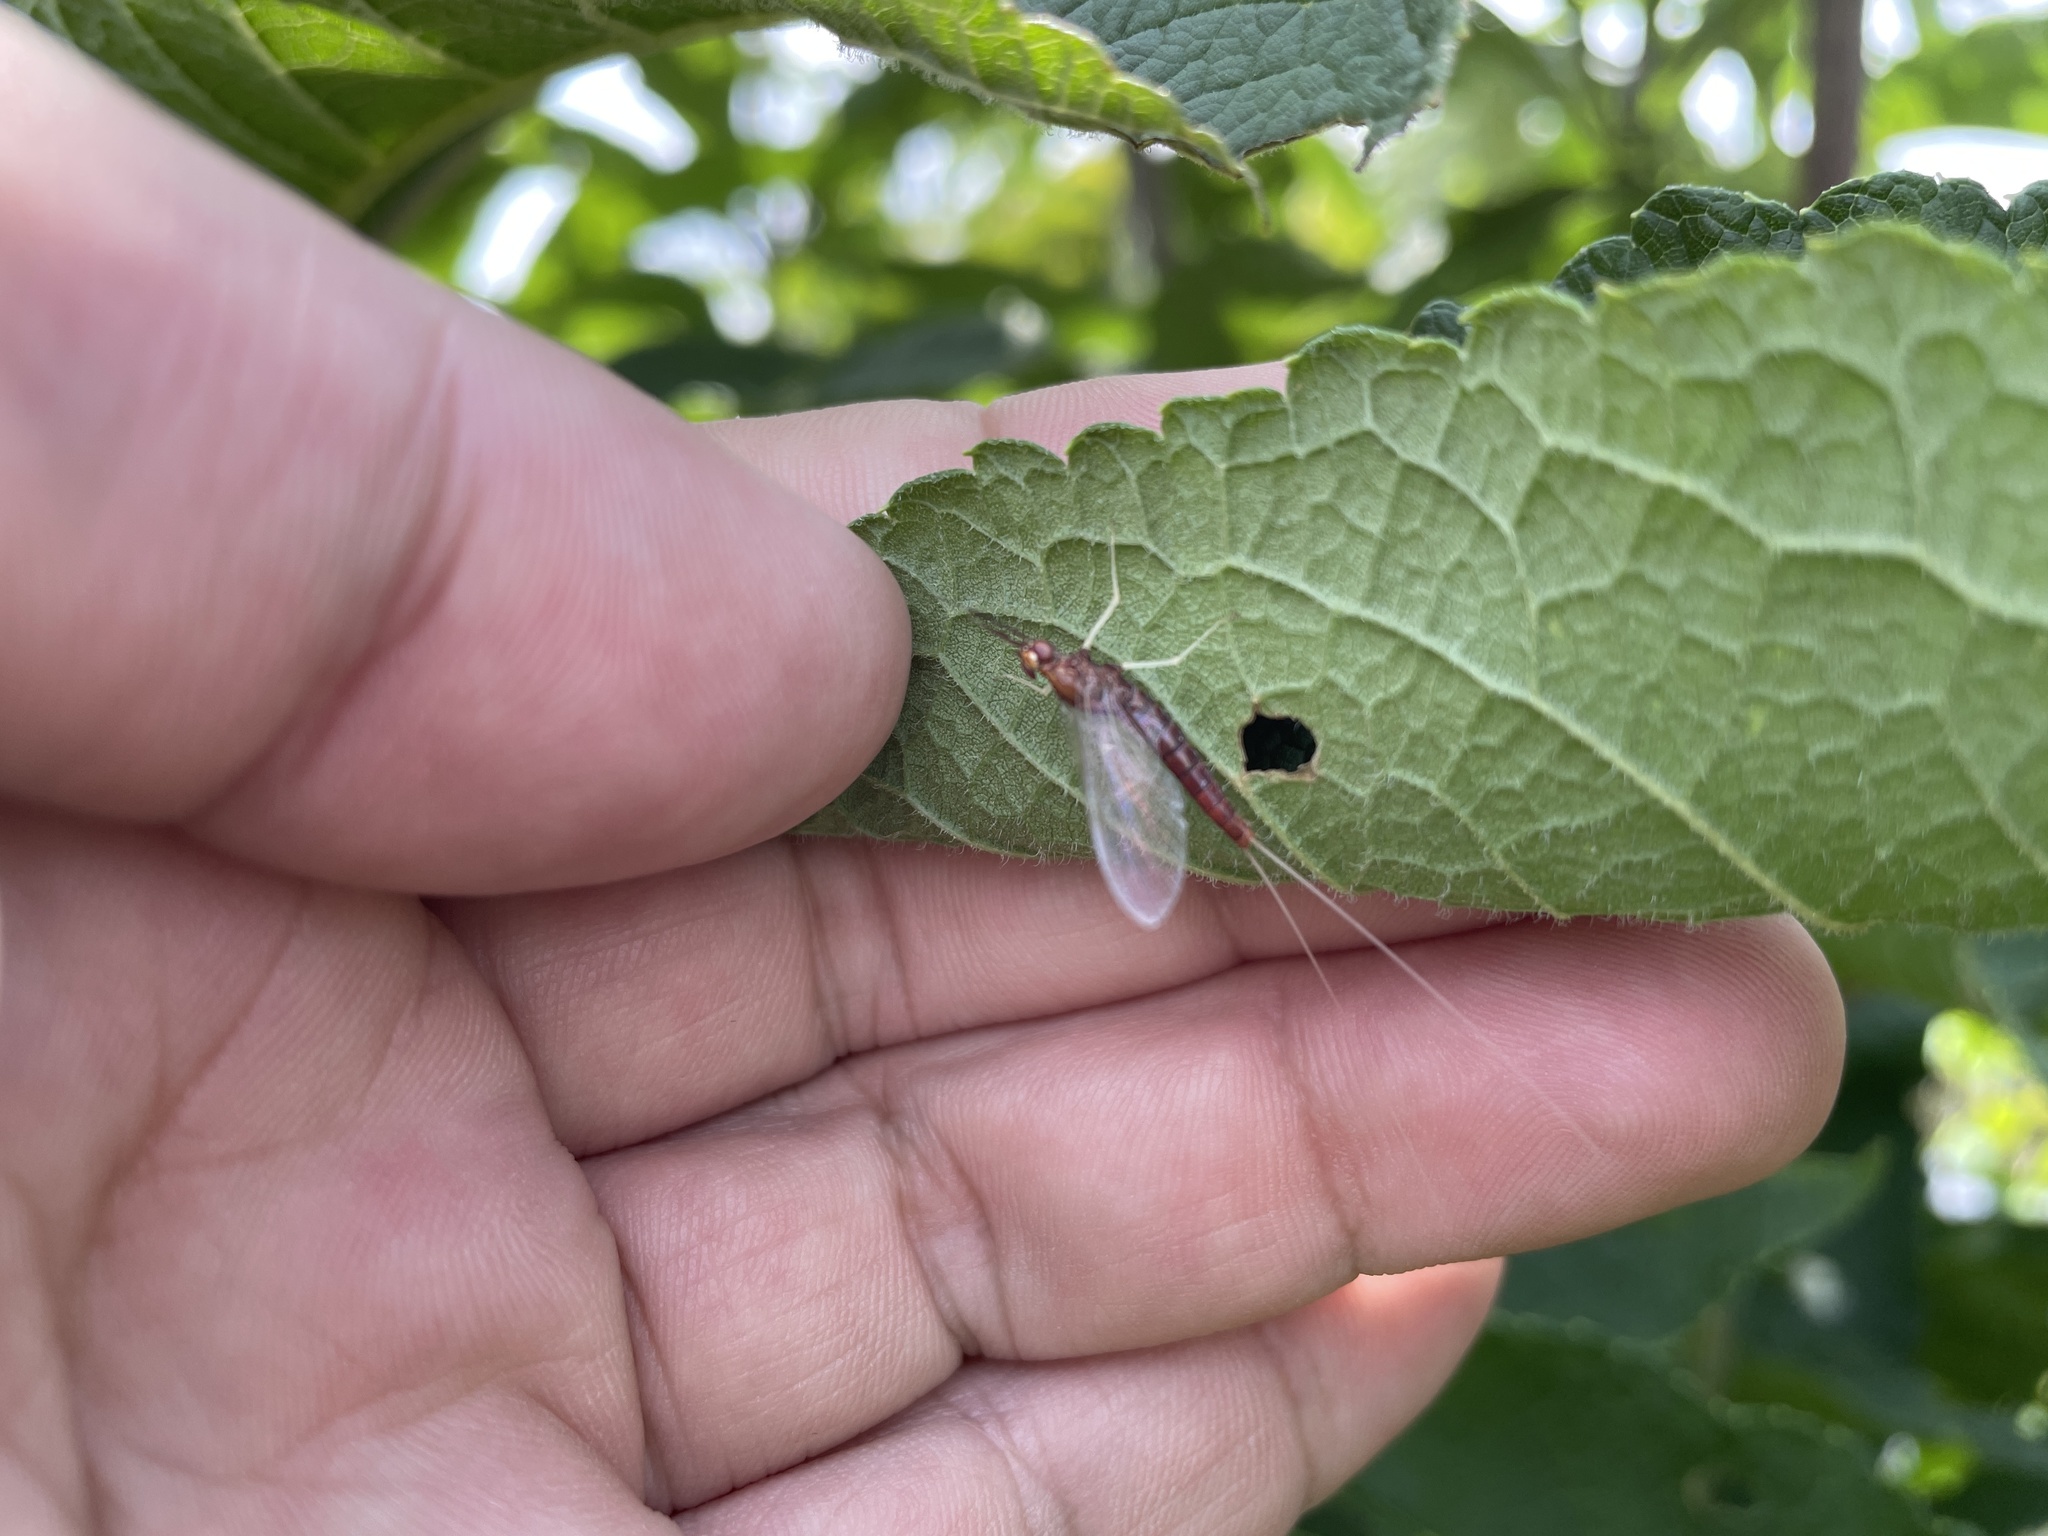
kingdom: Animalia
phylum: Arthropoda
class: Insecta
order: Ephemeroptera
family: Isonychiidae
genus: Isonychia
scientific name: Isonychia
